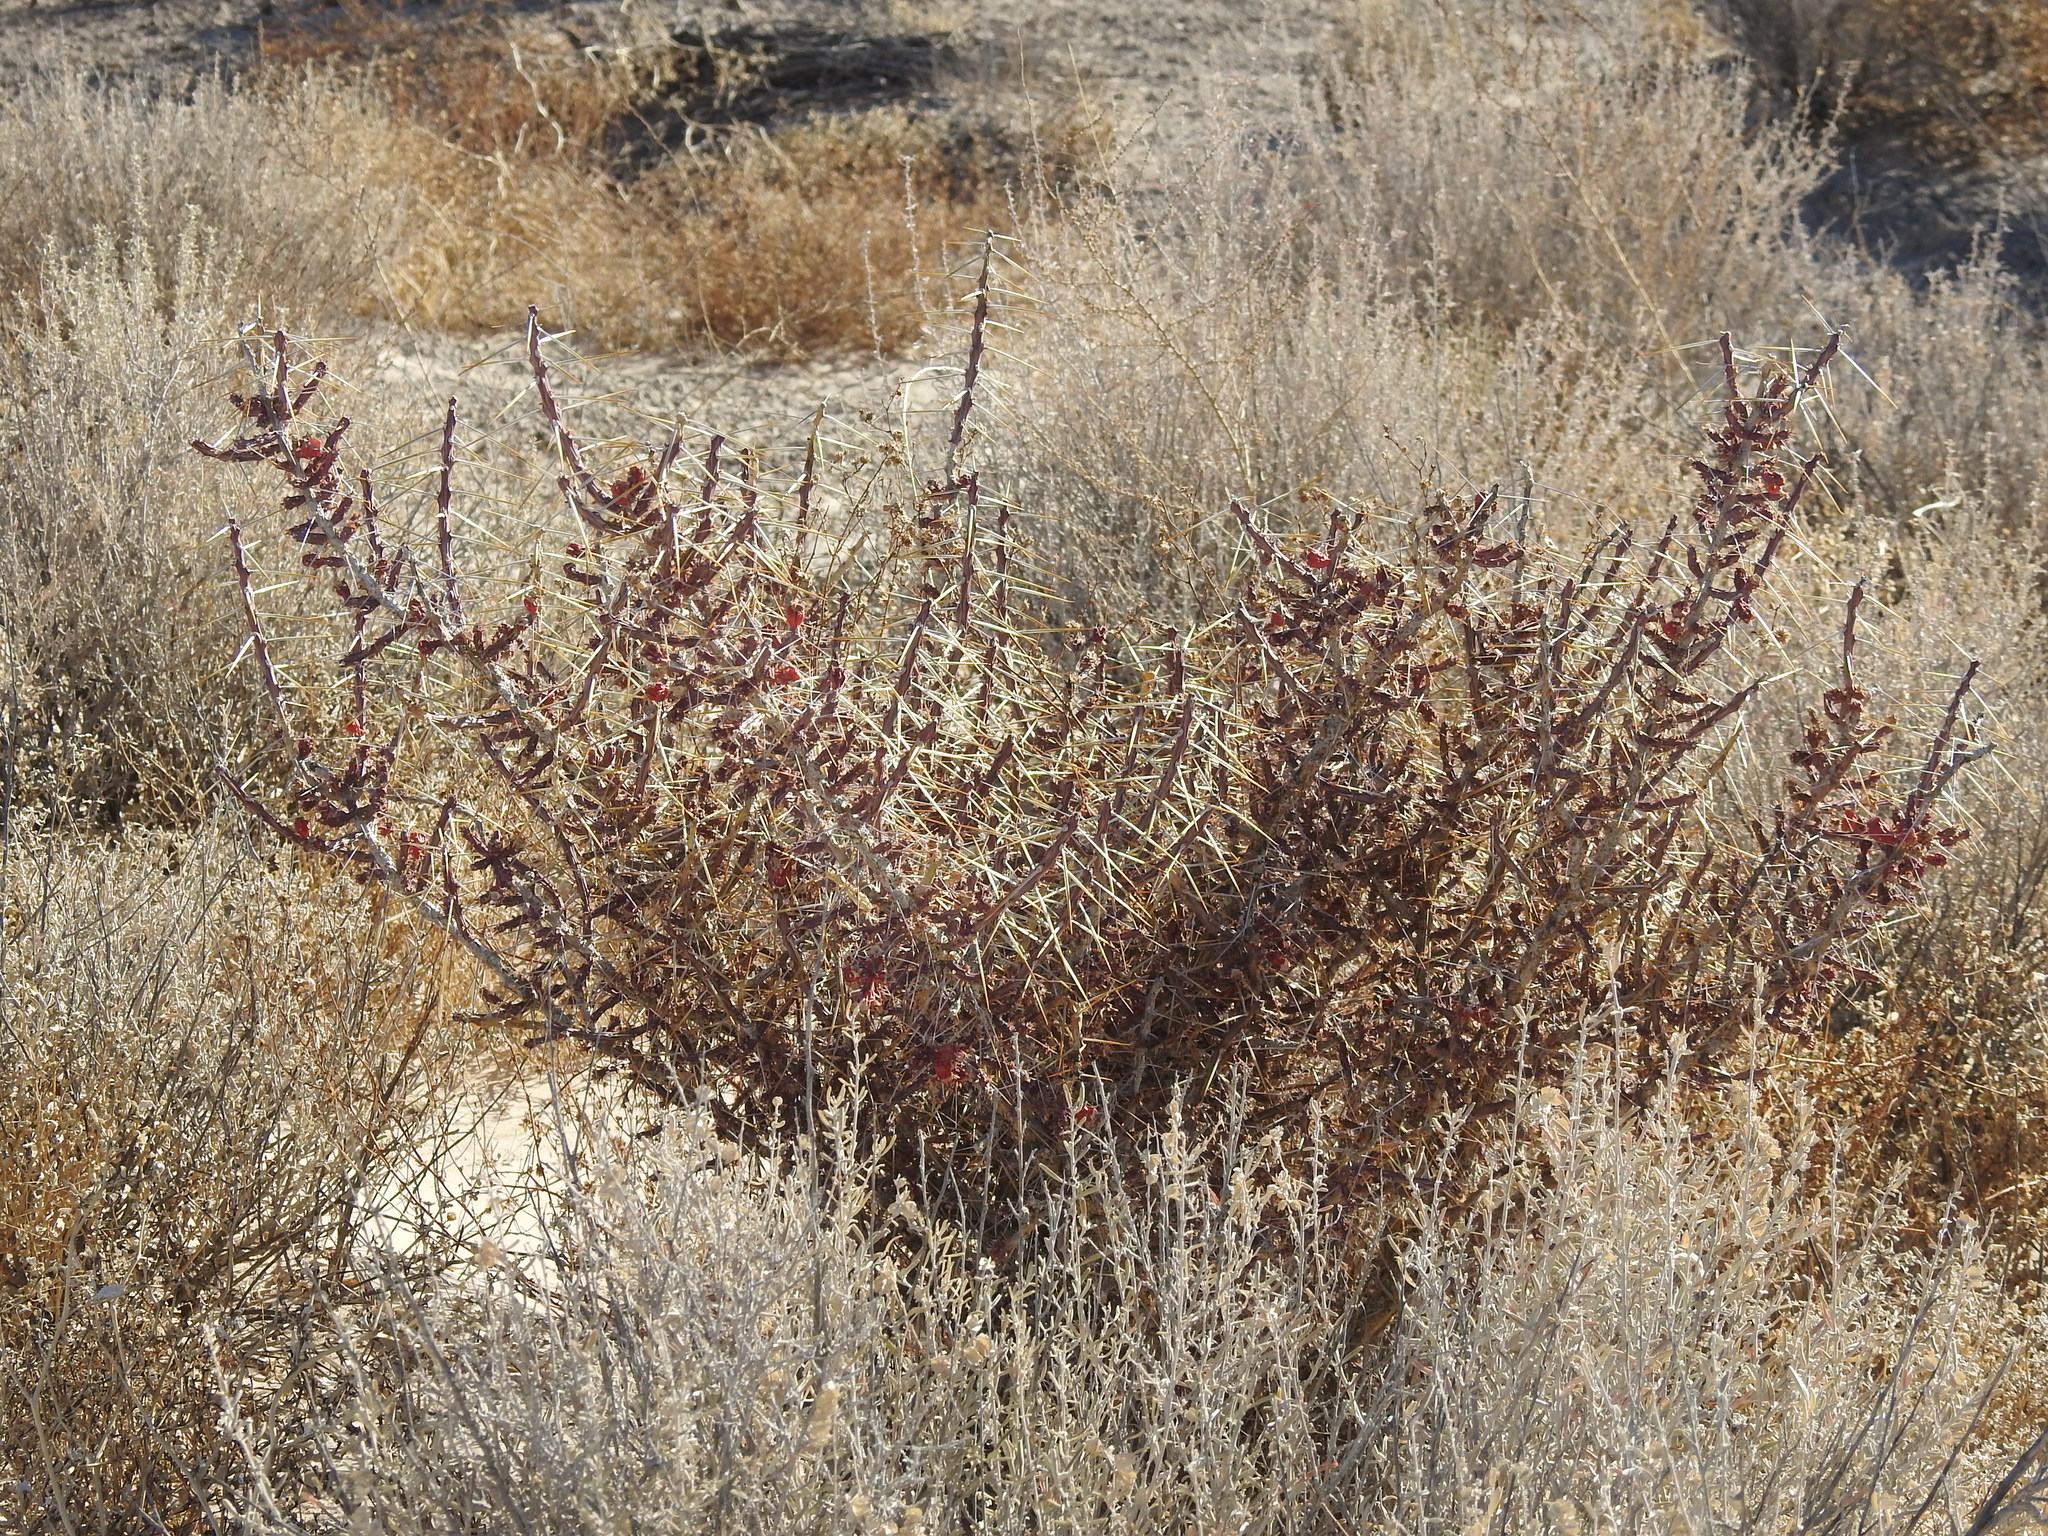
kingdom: Plantae
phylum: Tracheophyta
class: Magnoliopsida
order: Caryophyllales
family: Cactaceae
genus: Cylindropuntia
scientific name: Cylindropuntia leptocaulis
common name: Christmas cactus
